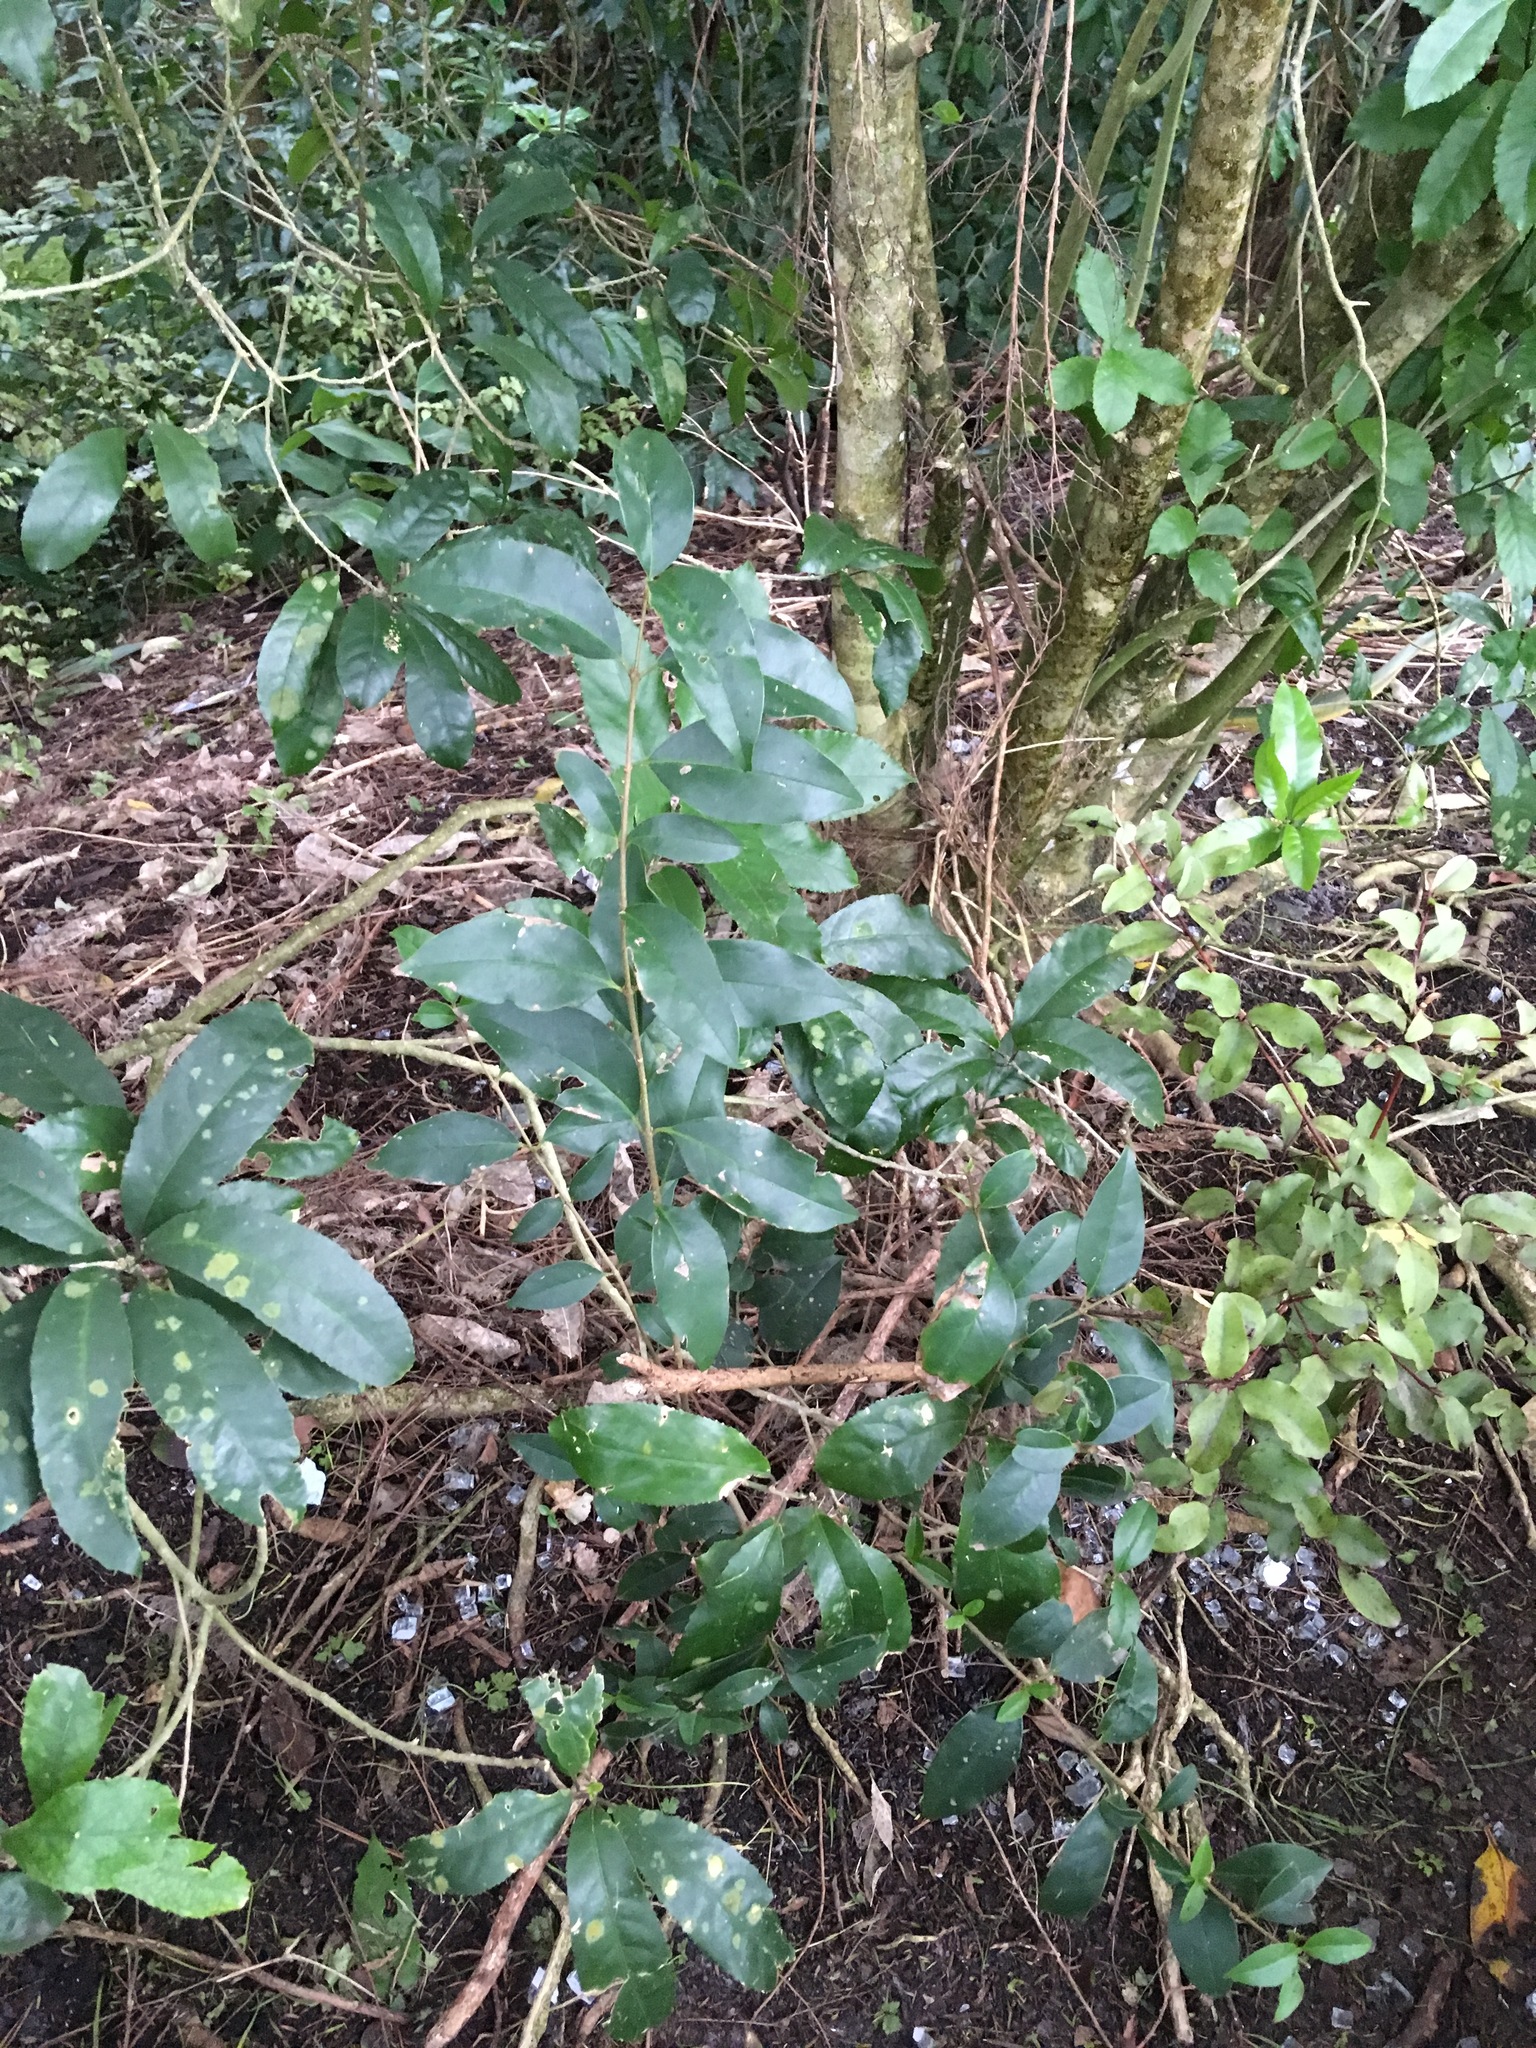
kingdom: Plantae
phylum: Tracheophyta
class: Magnoliopsida
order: Lamiales
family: Oleaceae
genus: Ligustrum
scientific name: Ligustrum lucidum
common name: Glossy privet
